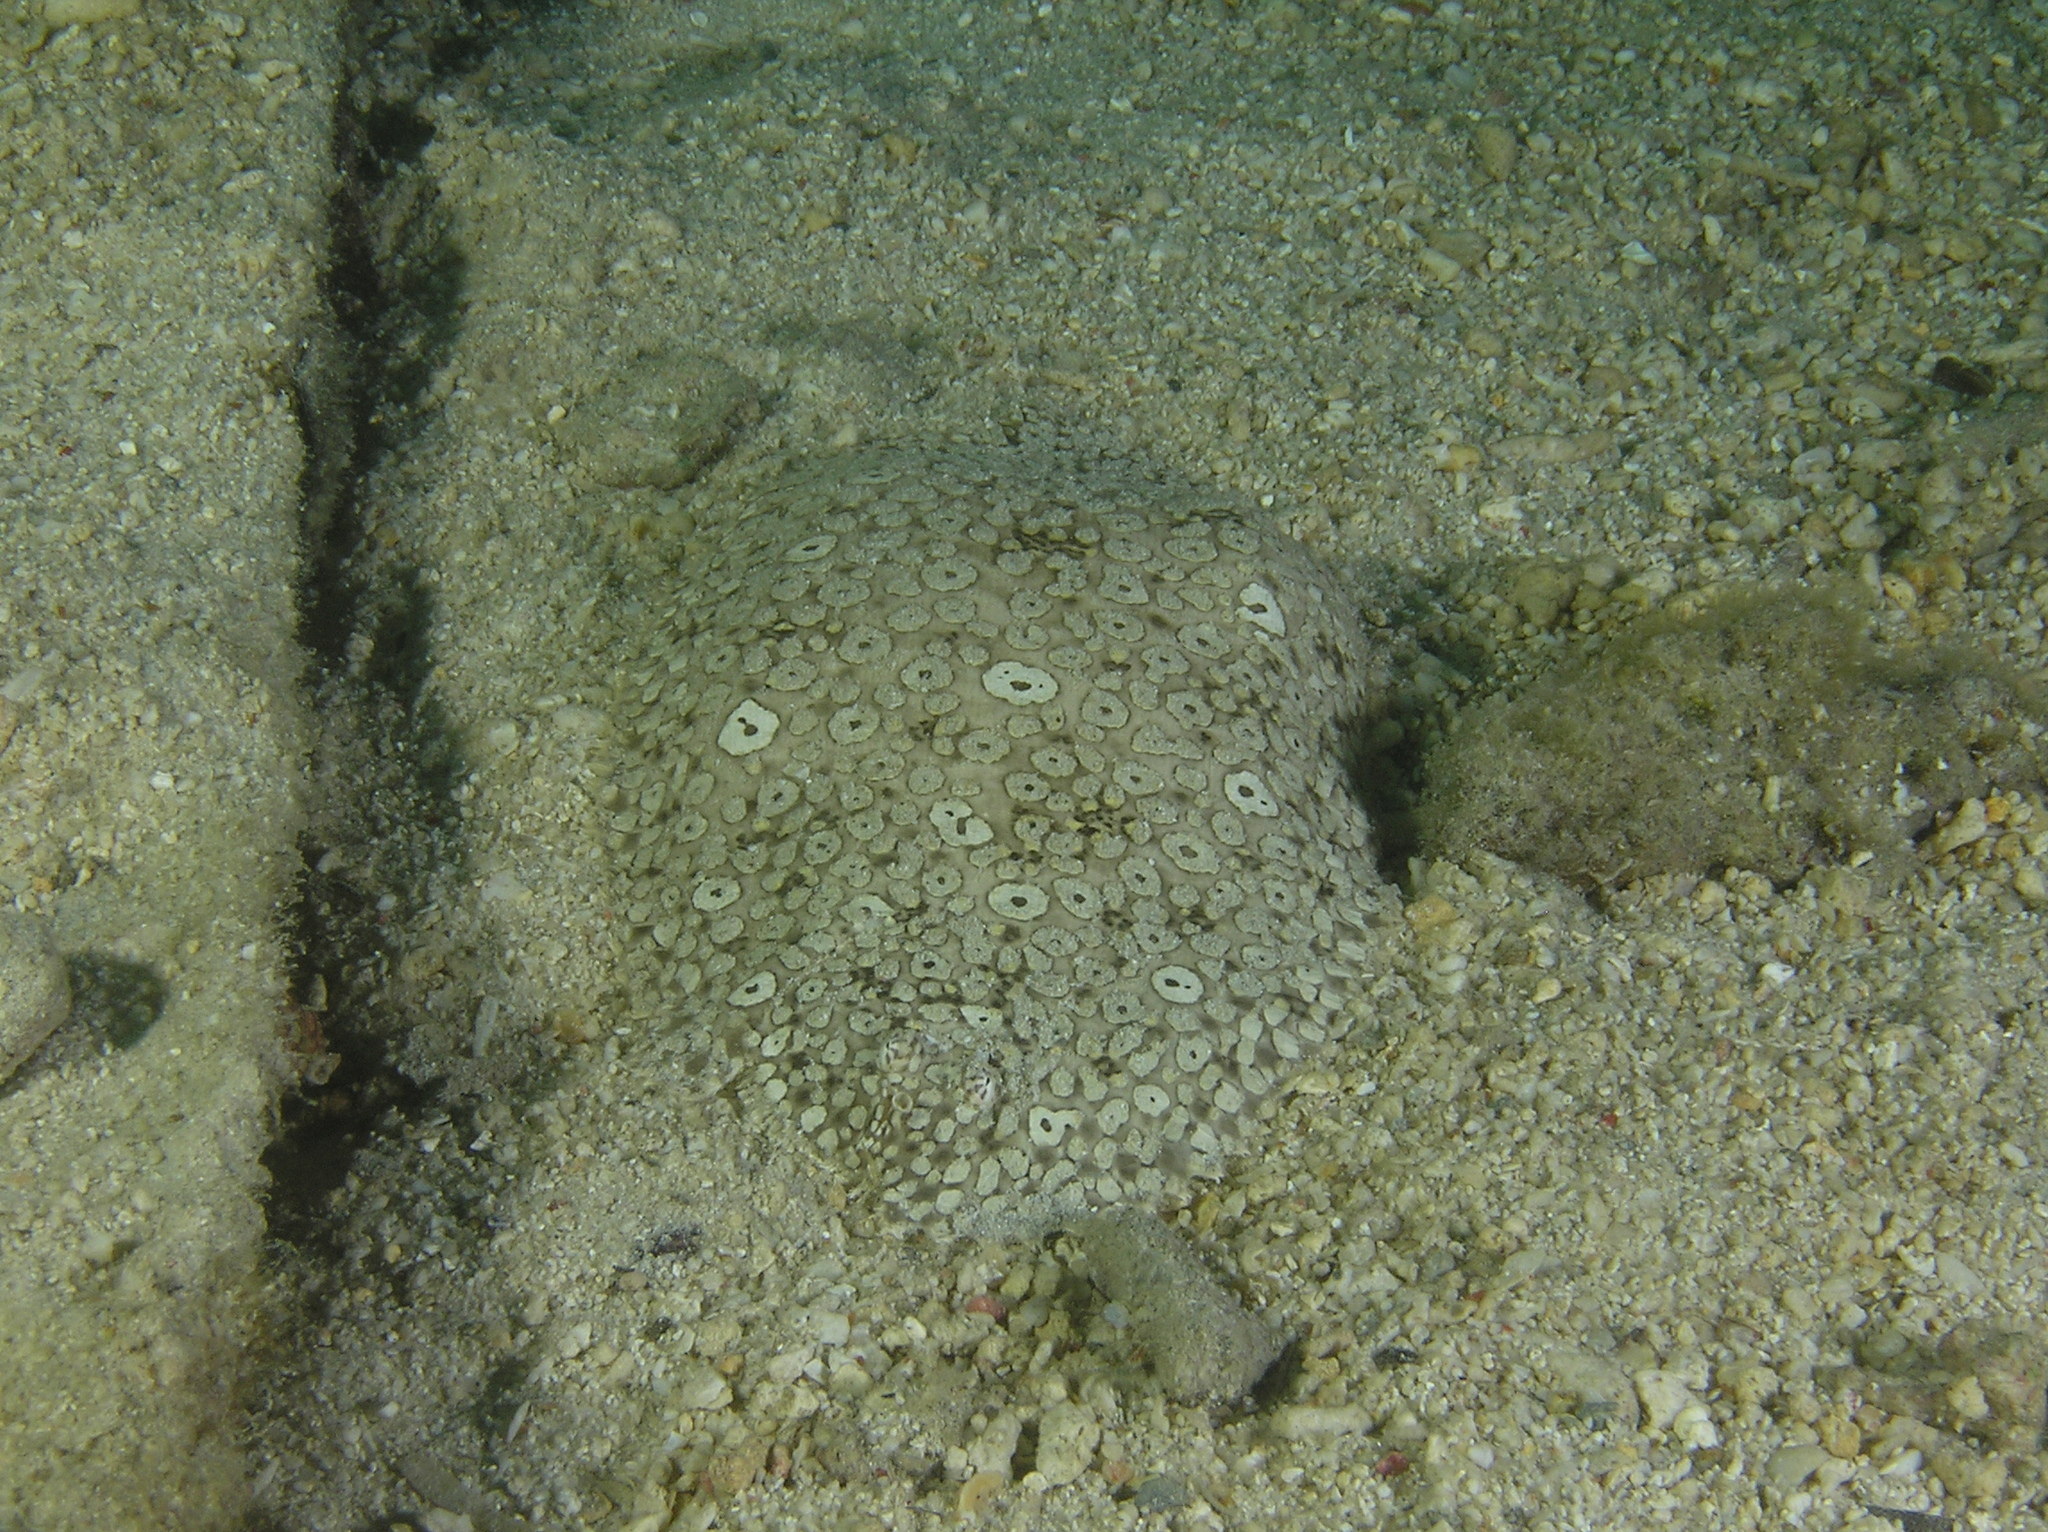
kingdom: Animalia
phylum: Chordata
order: Pleuronectiformes
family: Soleidae
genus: Pardachirus
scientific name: Pardachirus pavoninus
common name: Ocellated sole
